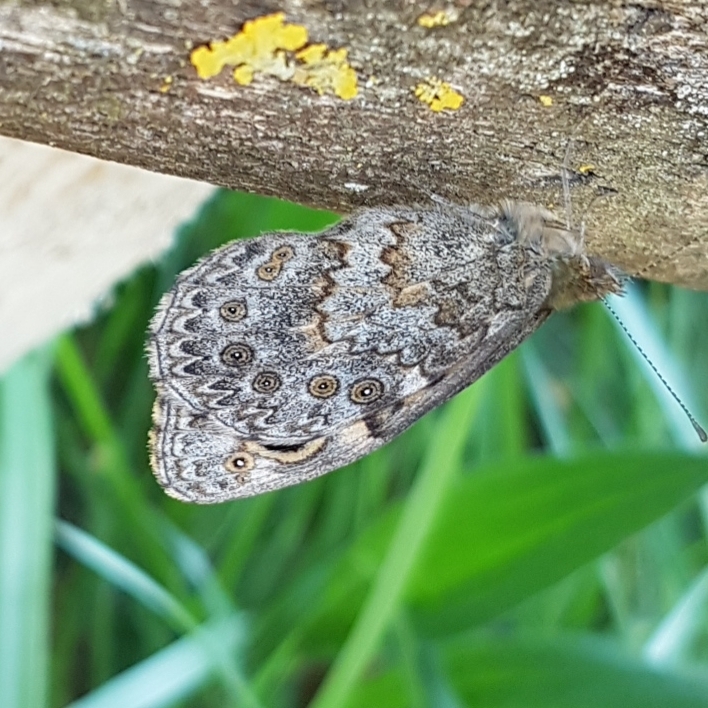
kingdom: Animalia
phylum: Arthropoda
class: Insecta
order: Lepidoptera
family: Nymphalidae
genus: Pararge
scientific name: Pararge Lasiommata megera
